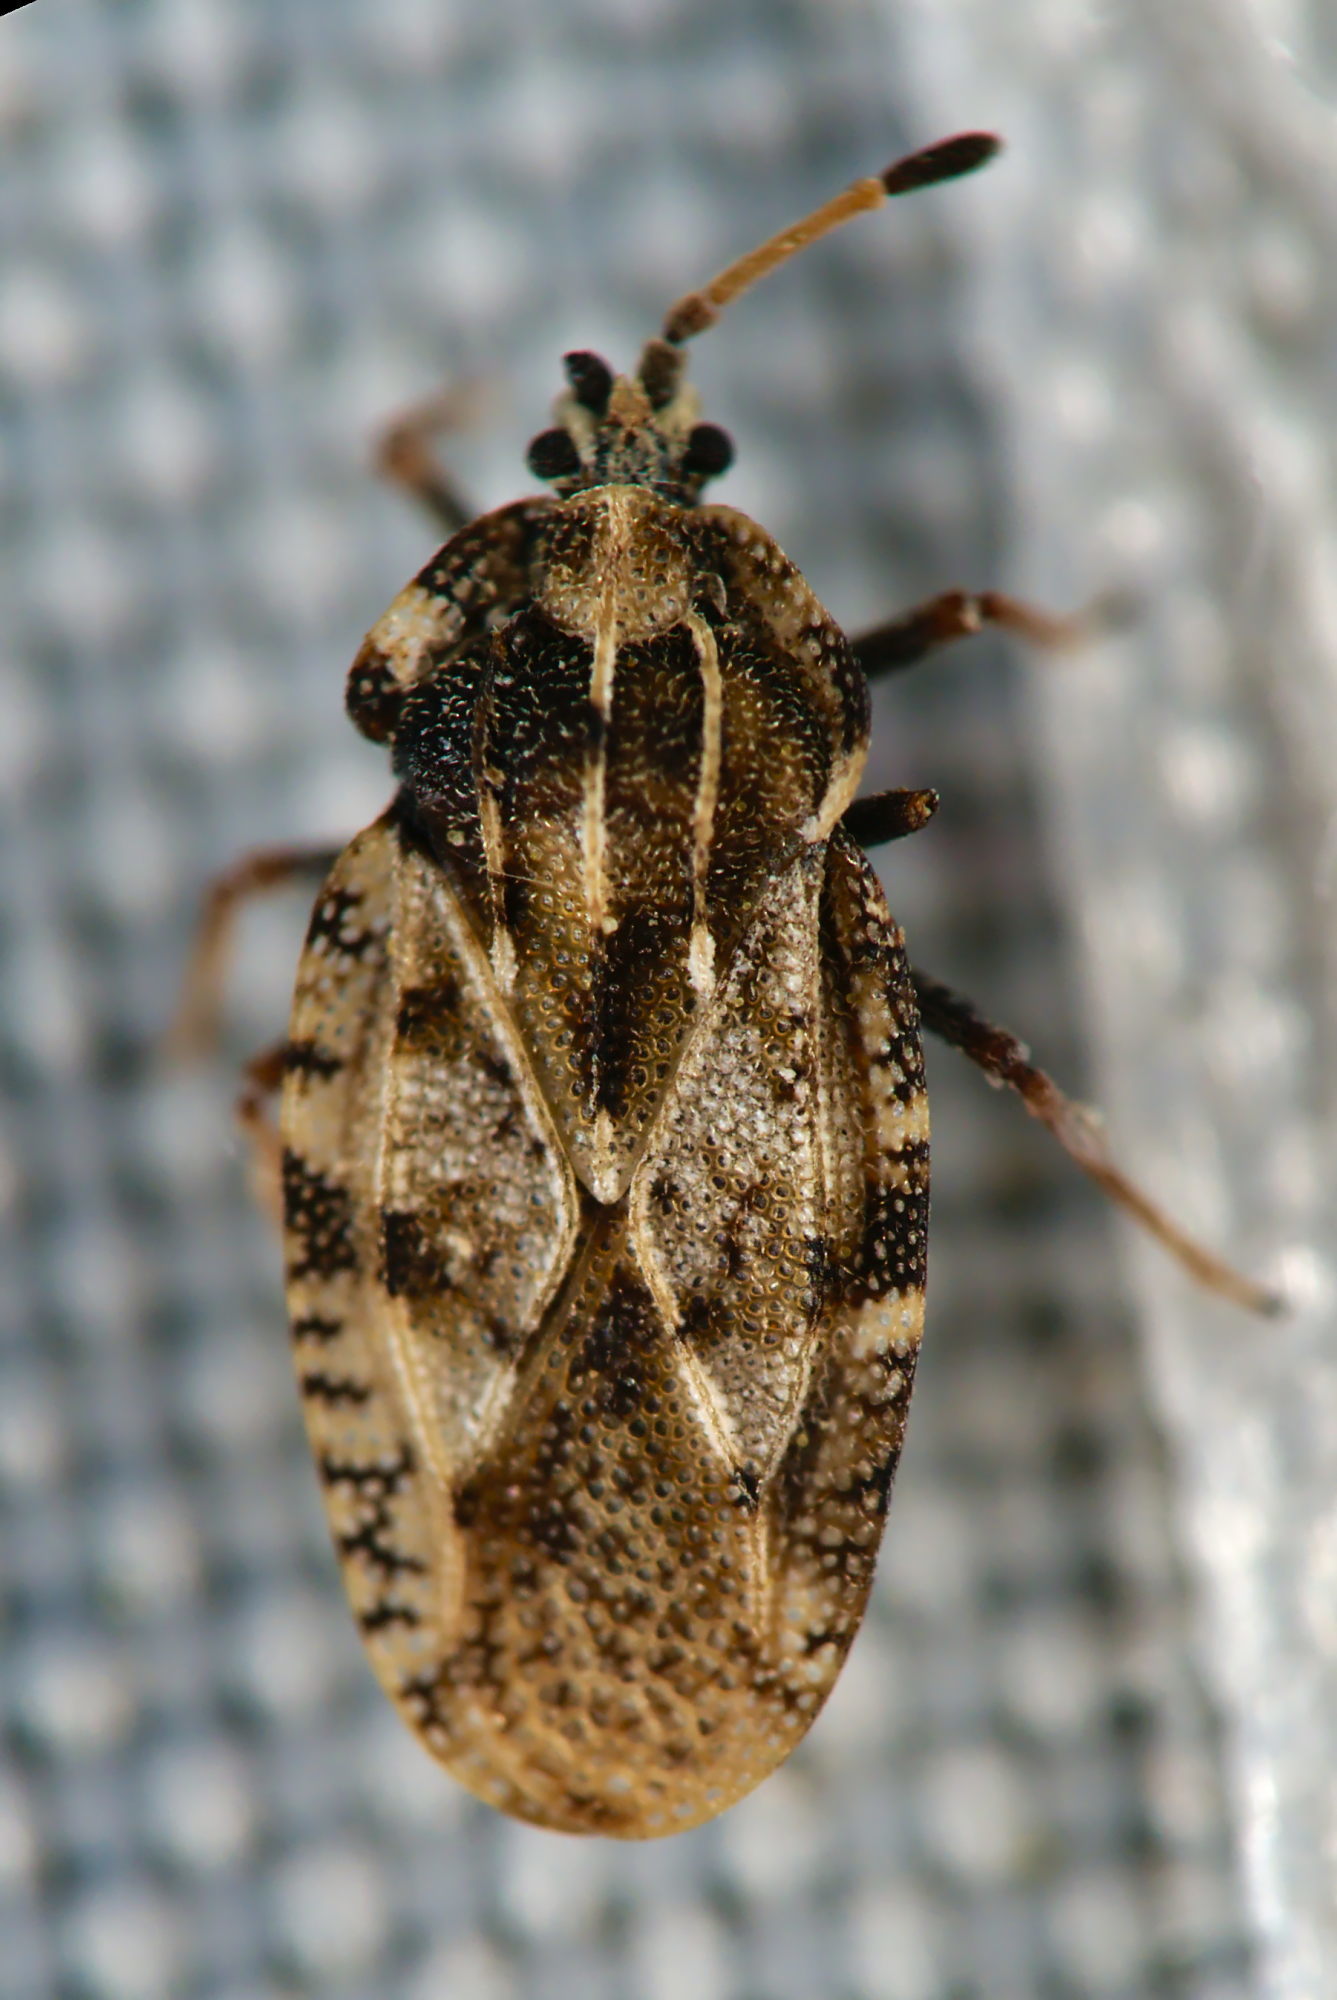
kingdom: Animalia
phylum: Arthropoda
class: Insecta
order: Hemiptera
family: Tingidae
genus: Tingis
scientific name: Tingis cardui
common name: Spear thistle lacebug
